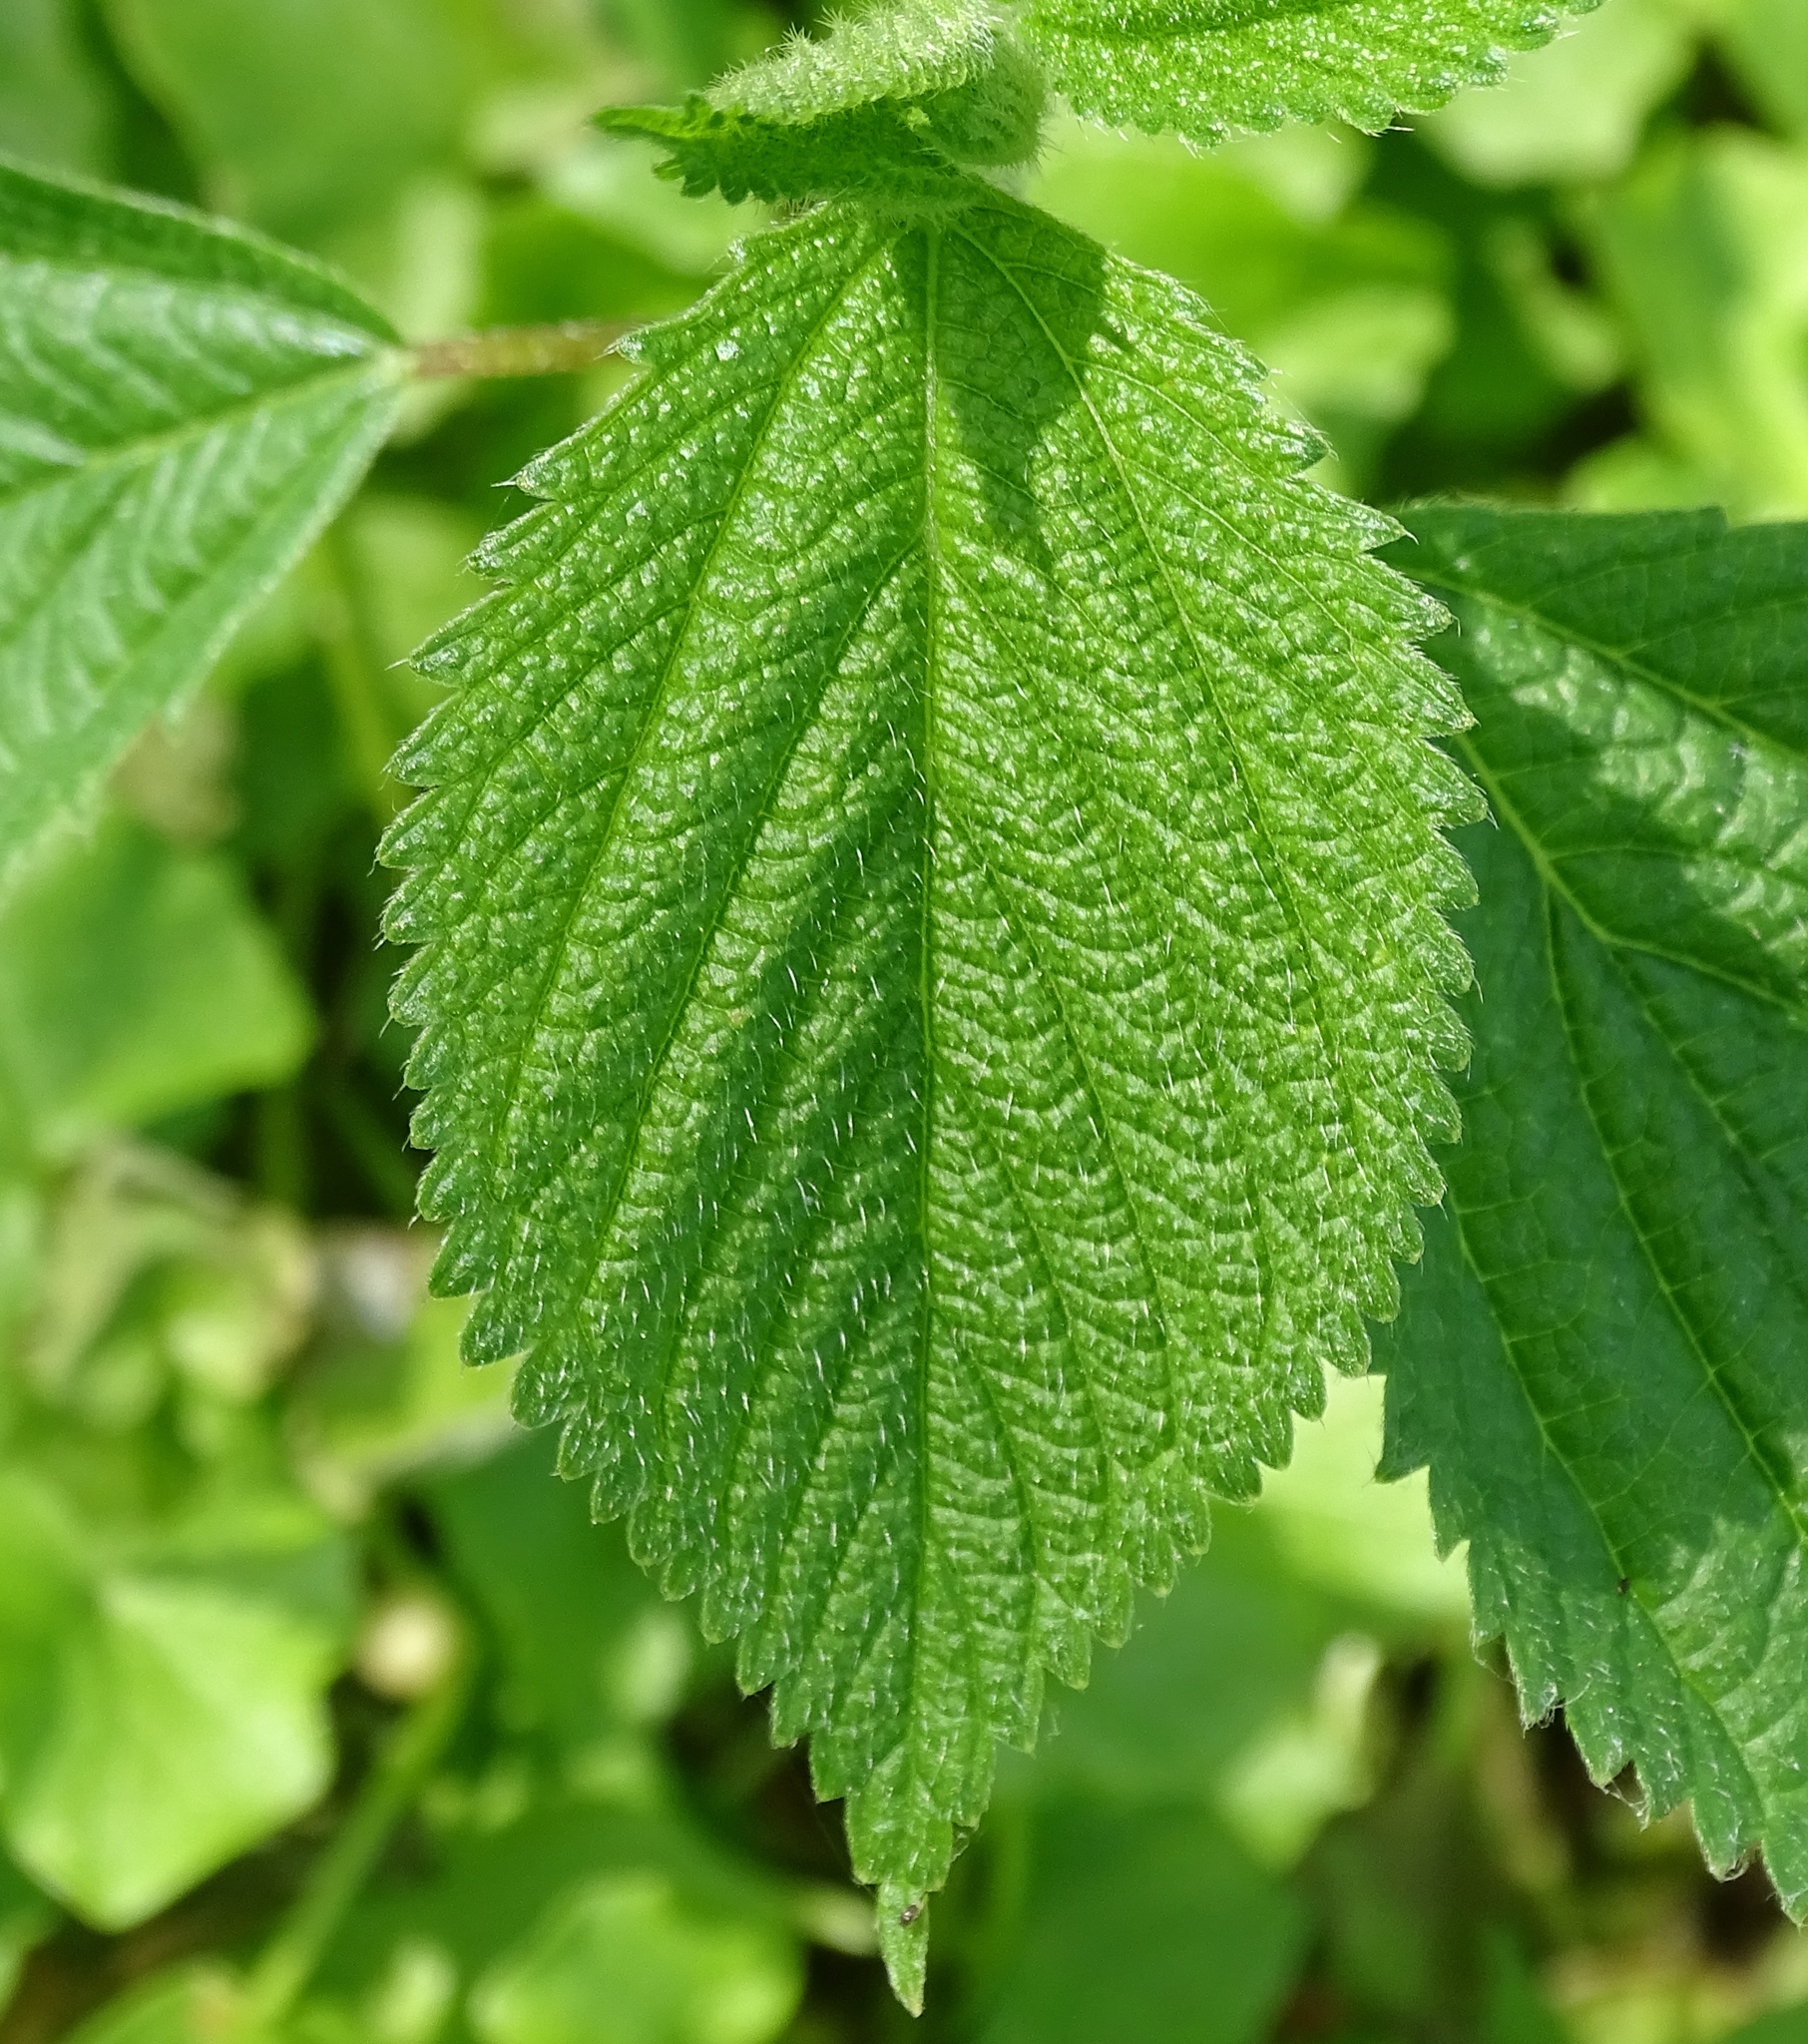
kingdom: Plantae
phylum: Tracheophyta
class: Magnoliopsida
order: Rosales
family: Urticaceae
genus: Laportea
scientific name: Laportea canadensis
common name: Canada nettle
